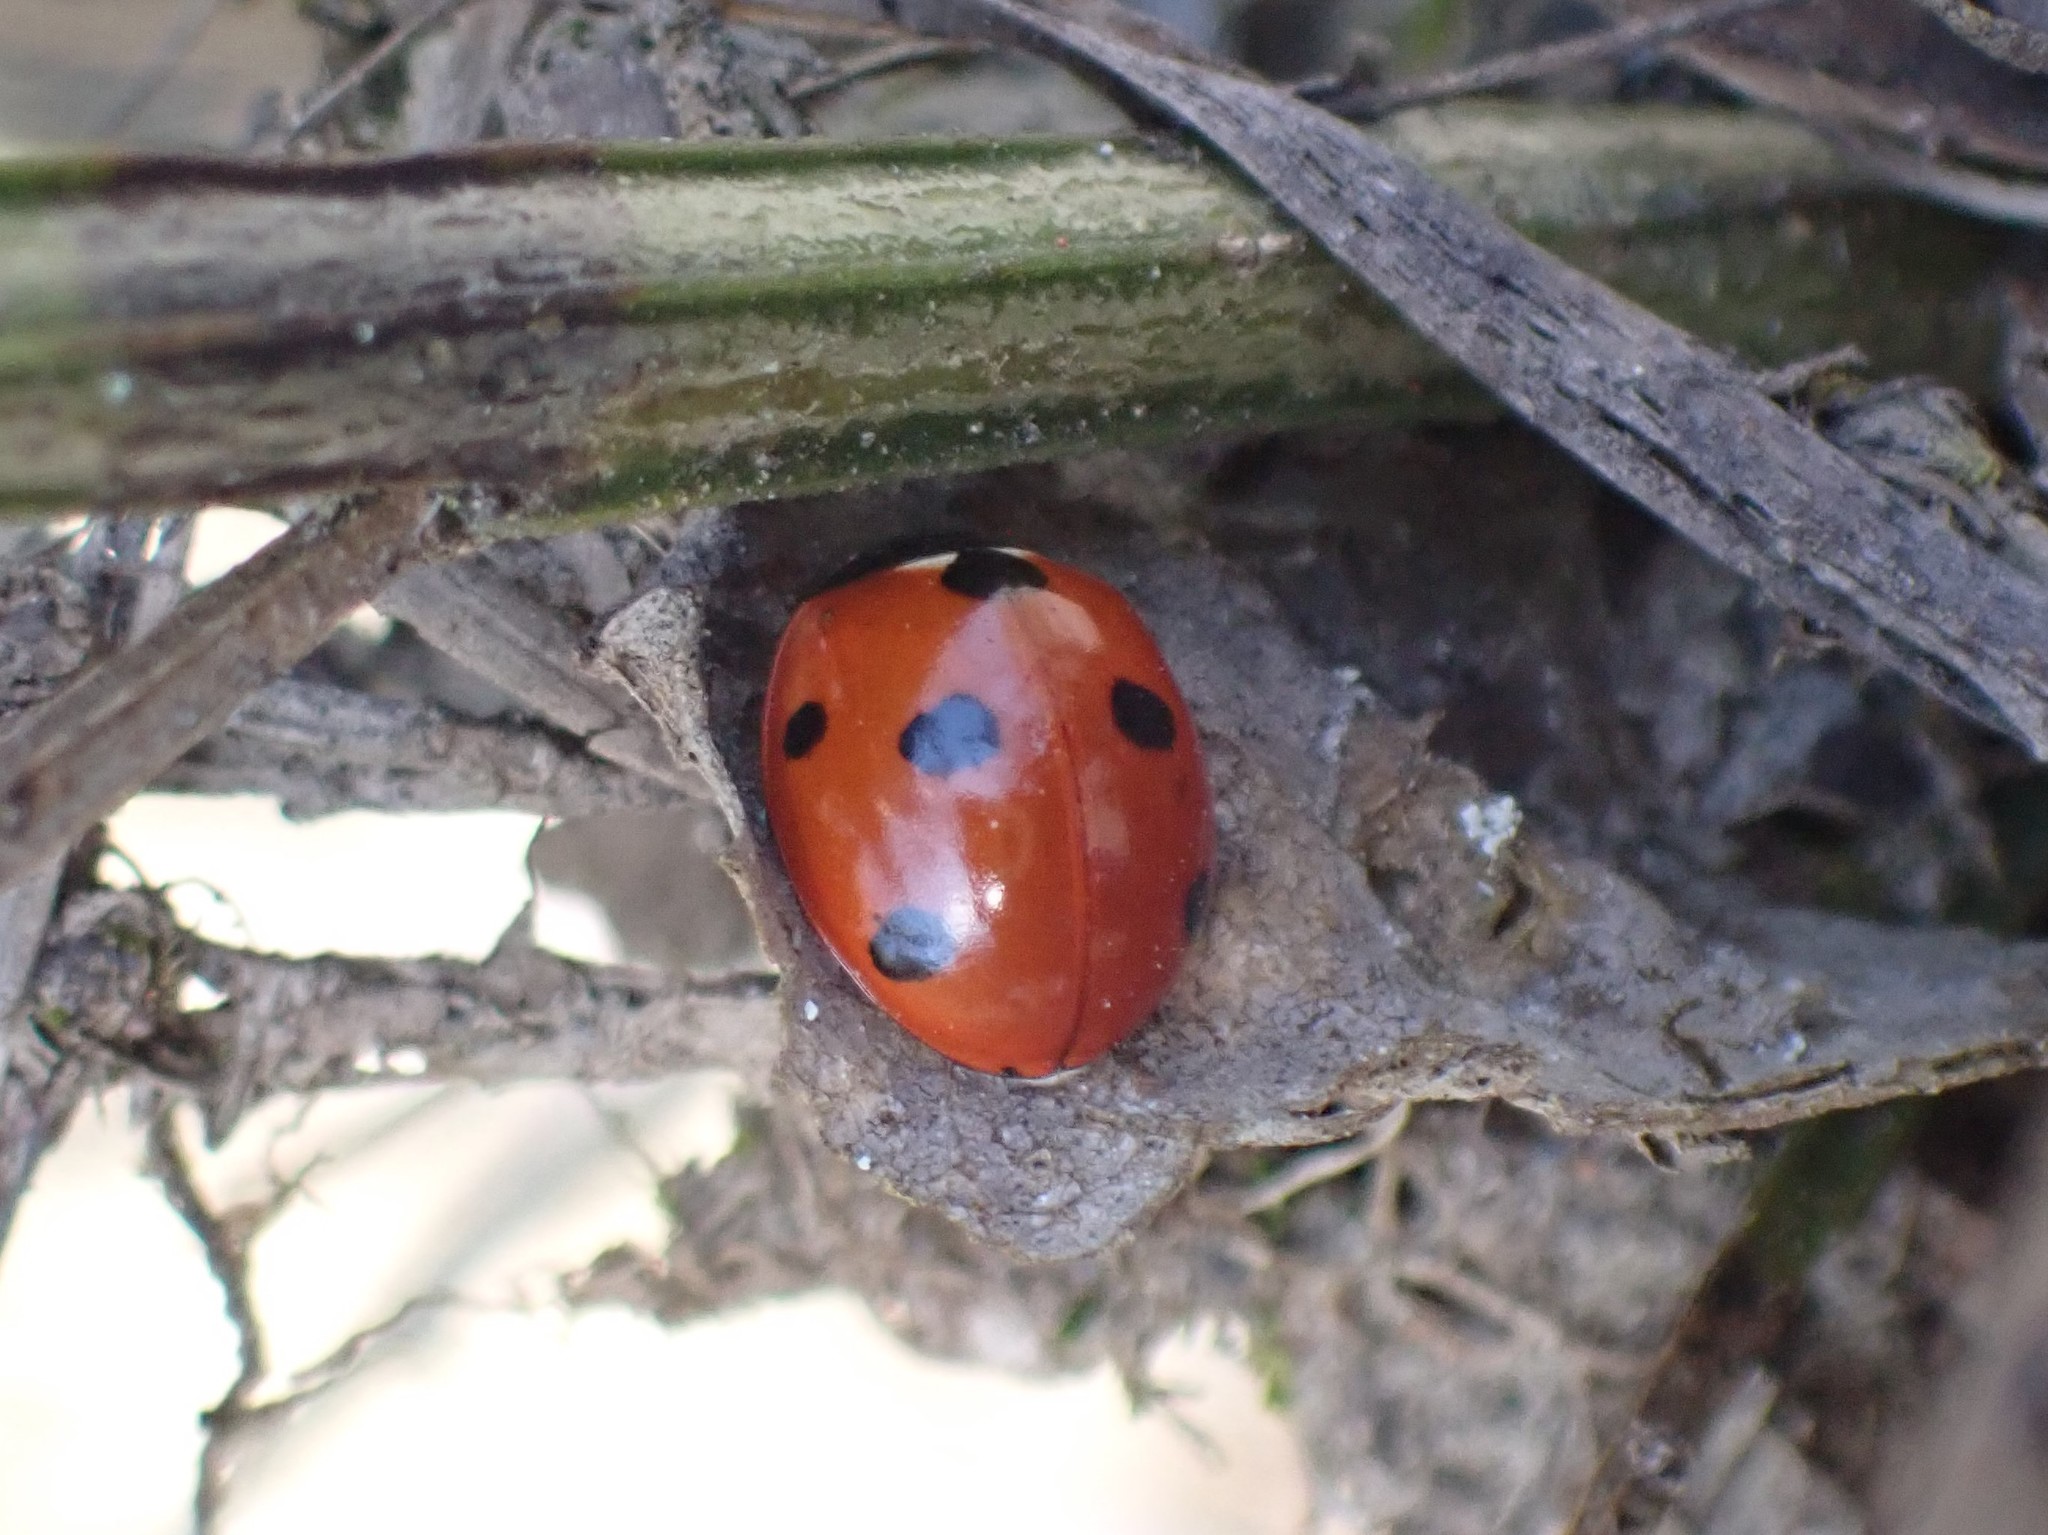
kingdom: Animalia
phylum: Arthropoda
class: Insecta
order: Coleoptera
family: Coccinellidae
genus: Coccinella
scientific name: Coccinella septempunctata
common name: Sevenspotted lady beetle
